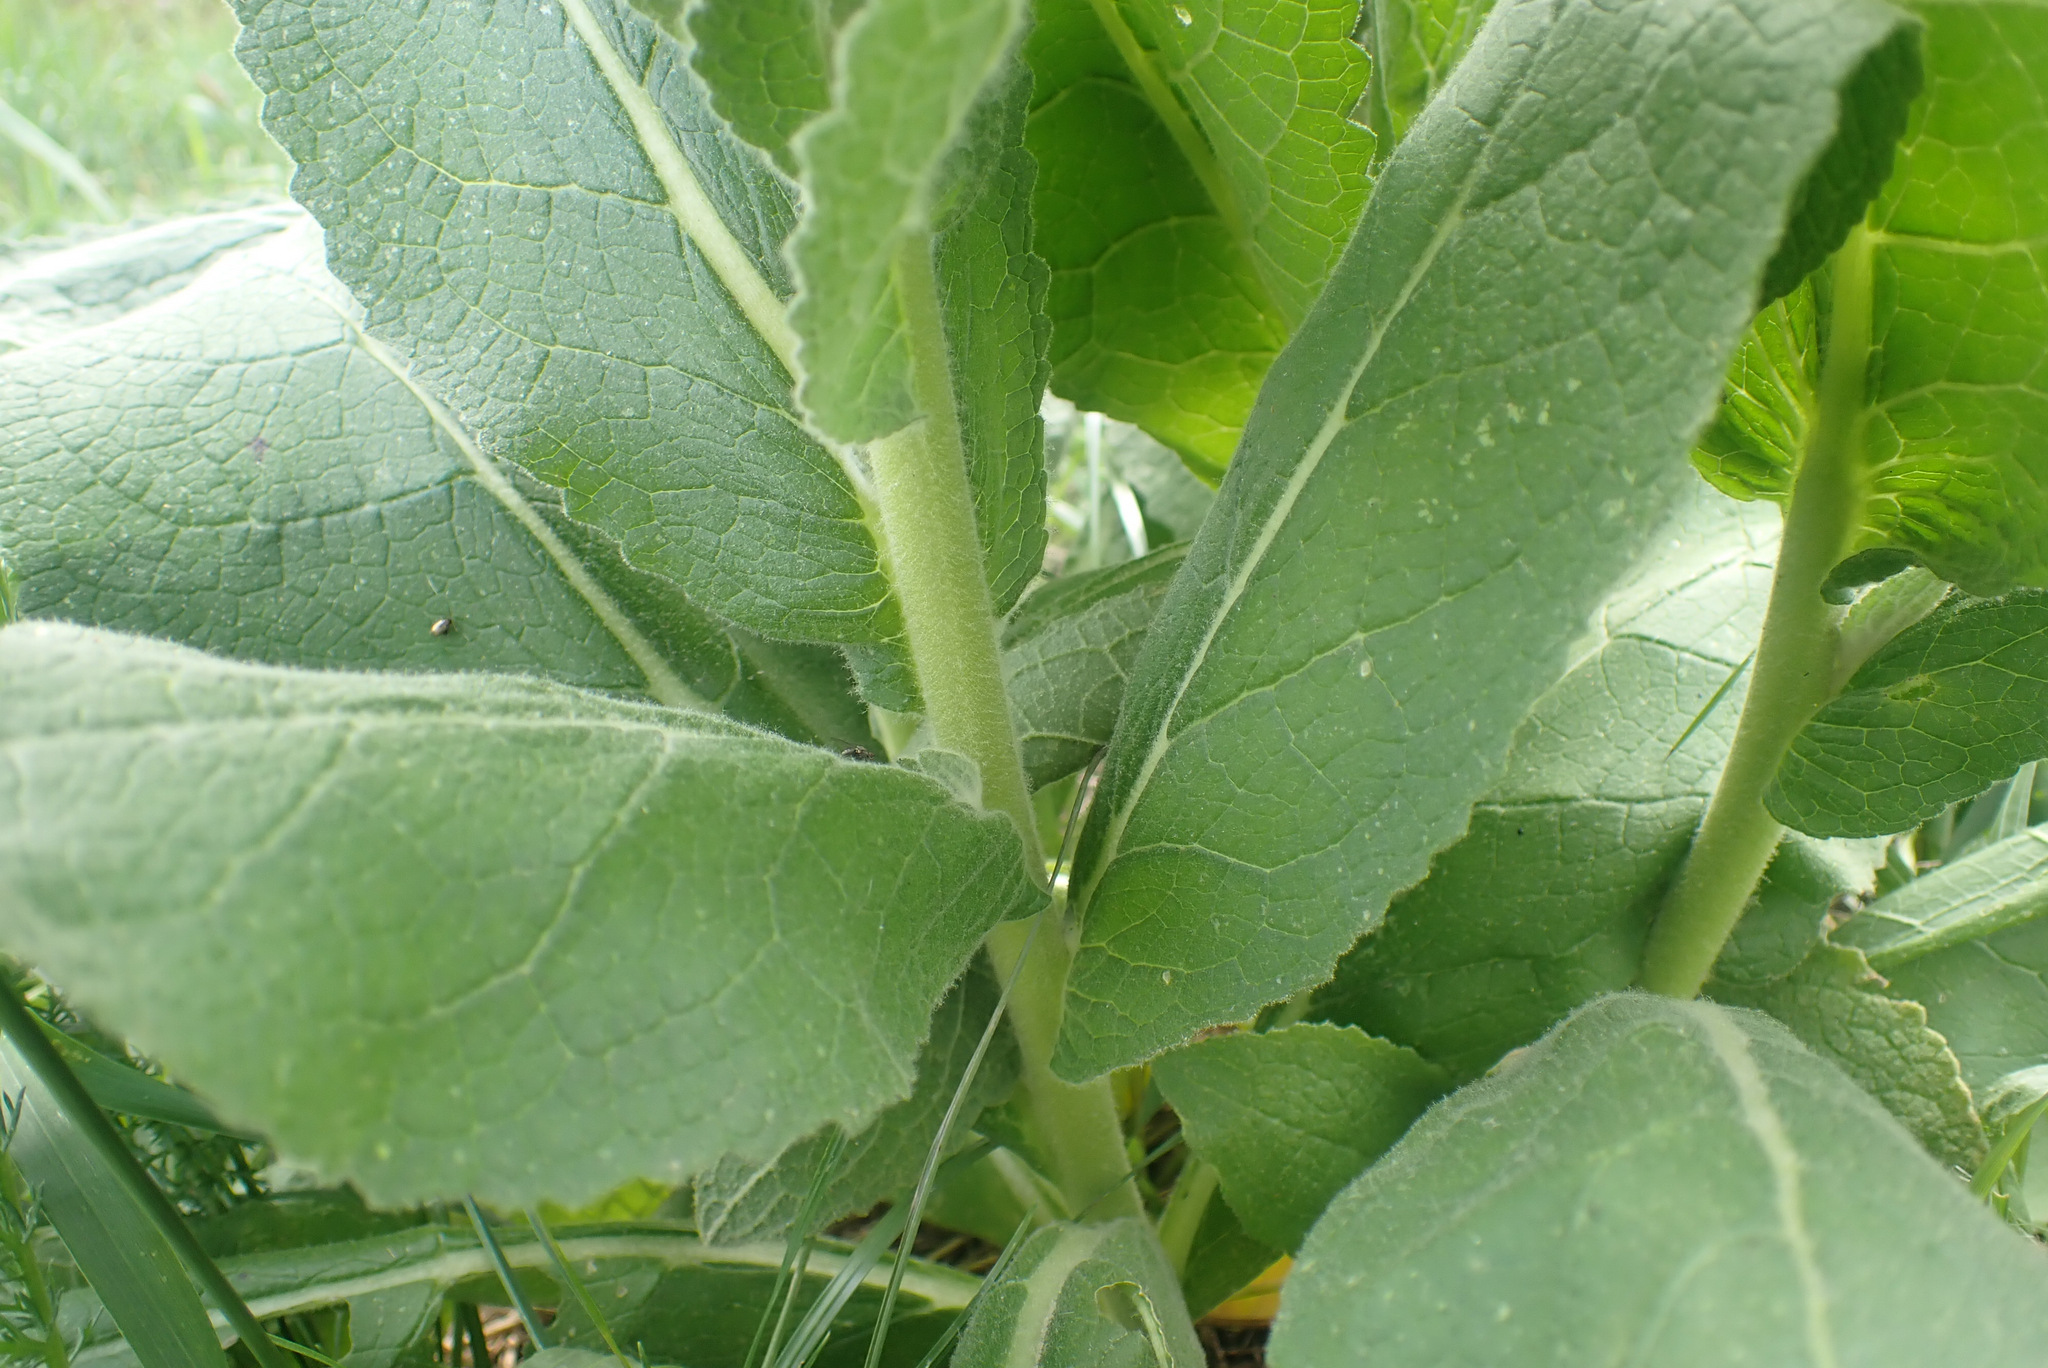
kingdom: Plantae
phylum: Tracheophyta
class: Magnoliopsida
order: Lamiales
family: Scrophulariaceae
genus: Verbascum
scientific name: Verbascum phlomoides
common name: Orange mullein
